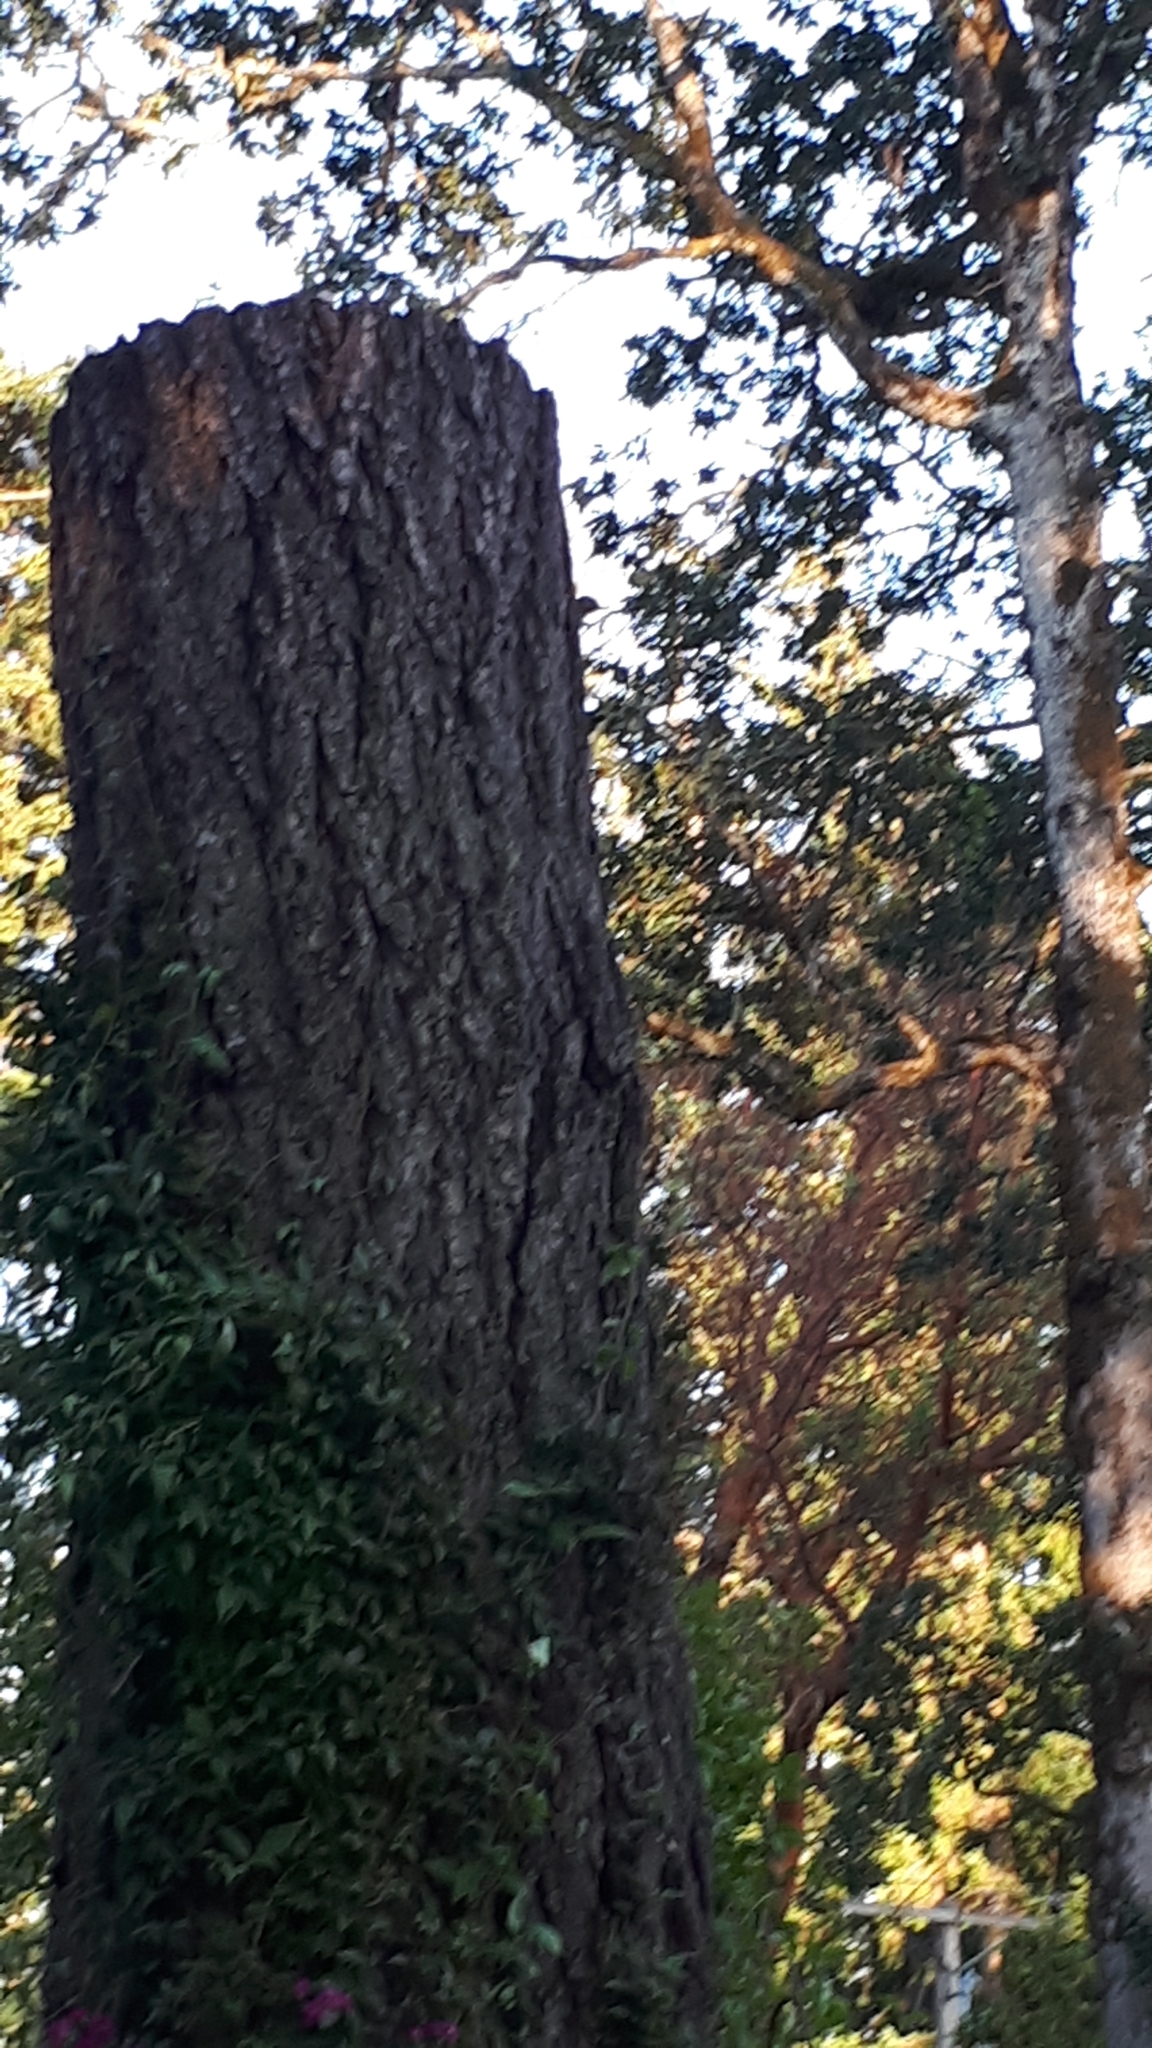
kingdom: Animalia
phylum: Chordata
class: Aves
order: Piciformes
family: Picidae
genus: Colaptes
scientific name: Colaptes auratus
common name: Northern flicker
